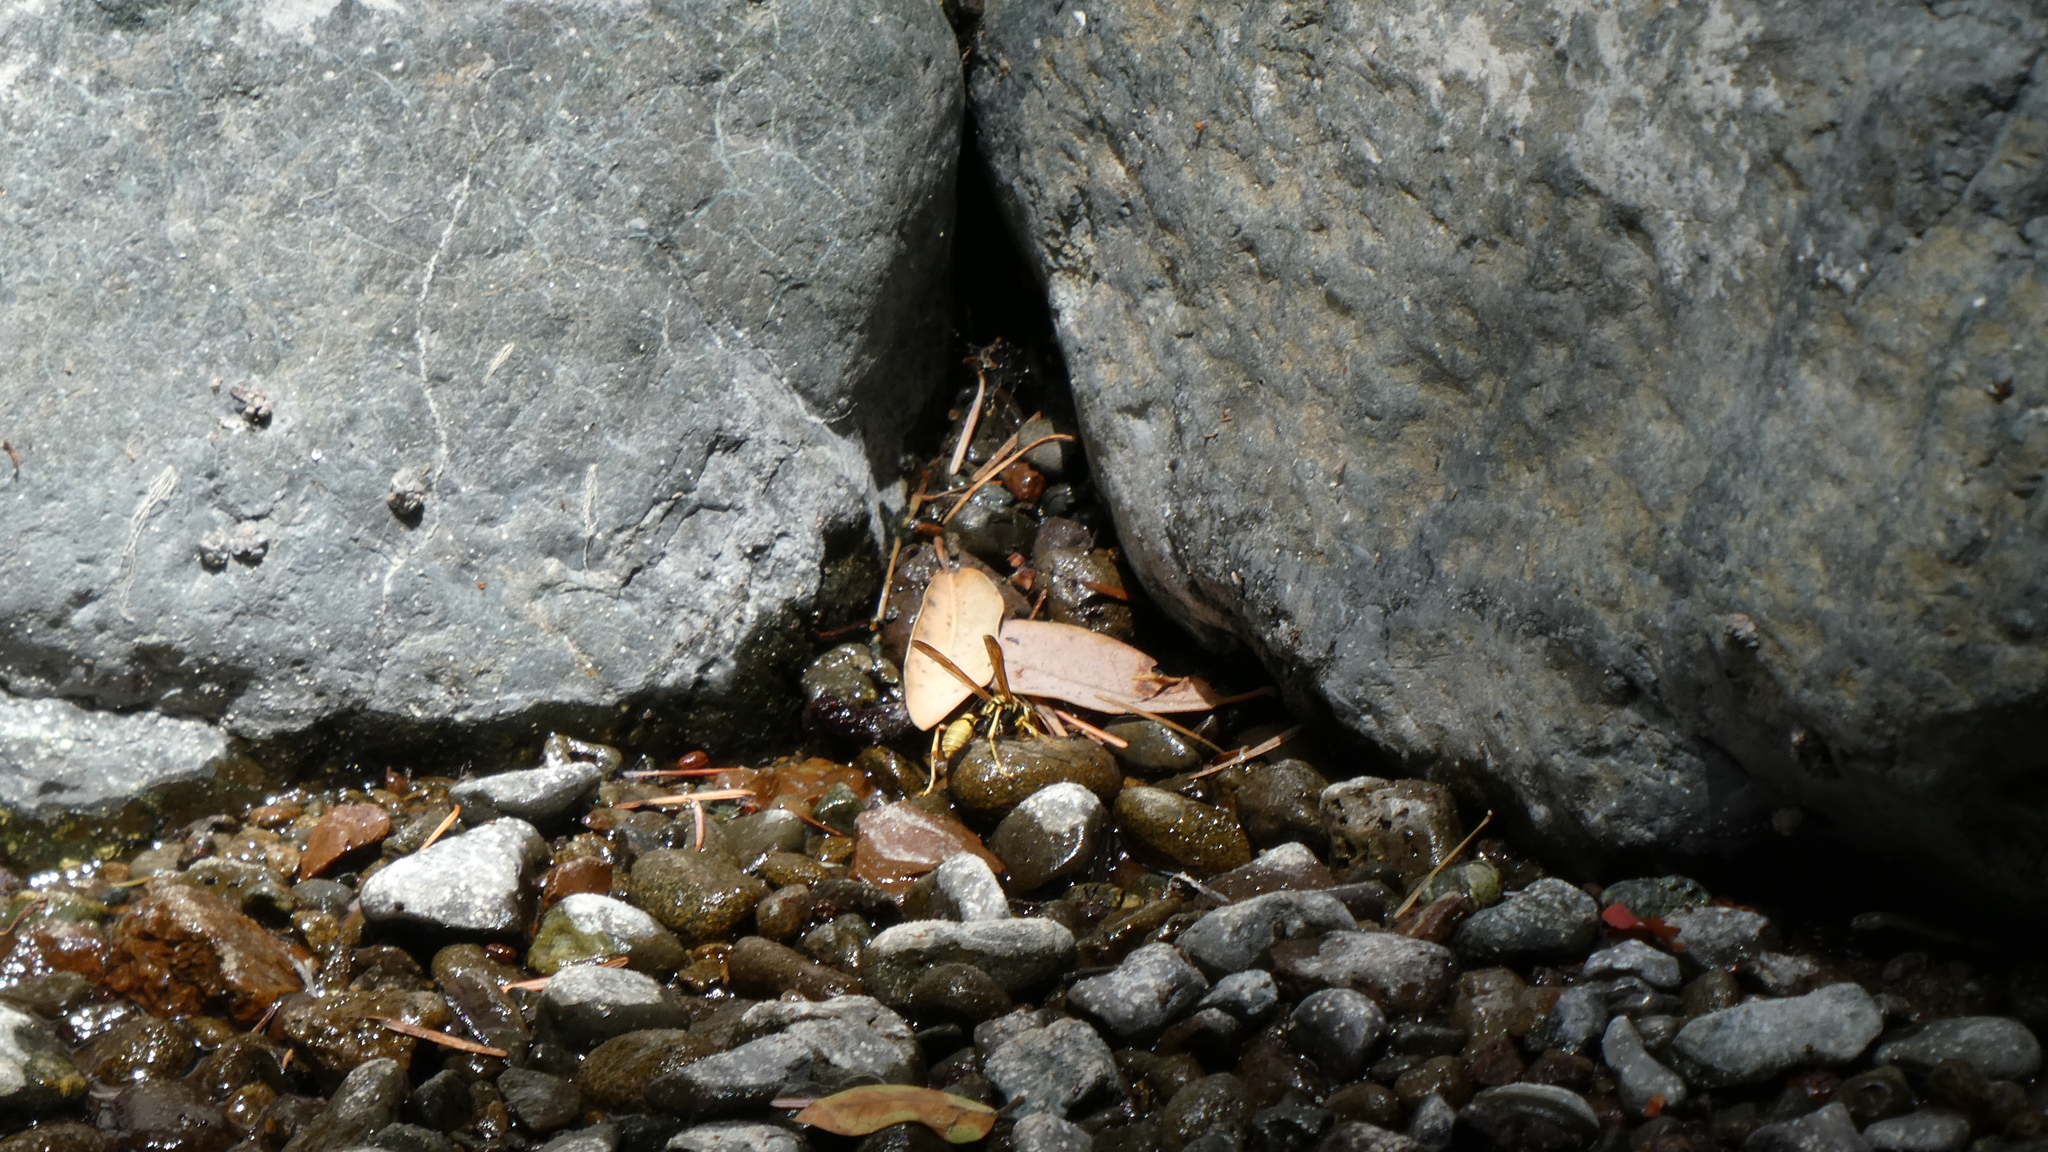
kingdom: Animalia
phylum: Arthropoda
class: Insecta
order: Hymenoptera
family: Vespidae
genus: Mischocyttarus
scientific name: Mischocyttarus flavitarsis
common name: Wasp
